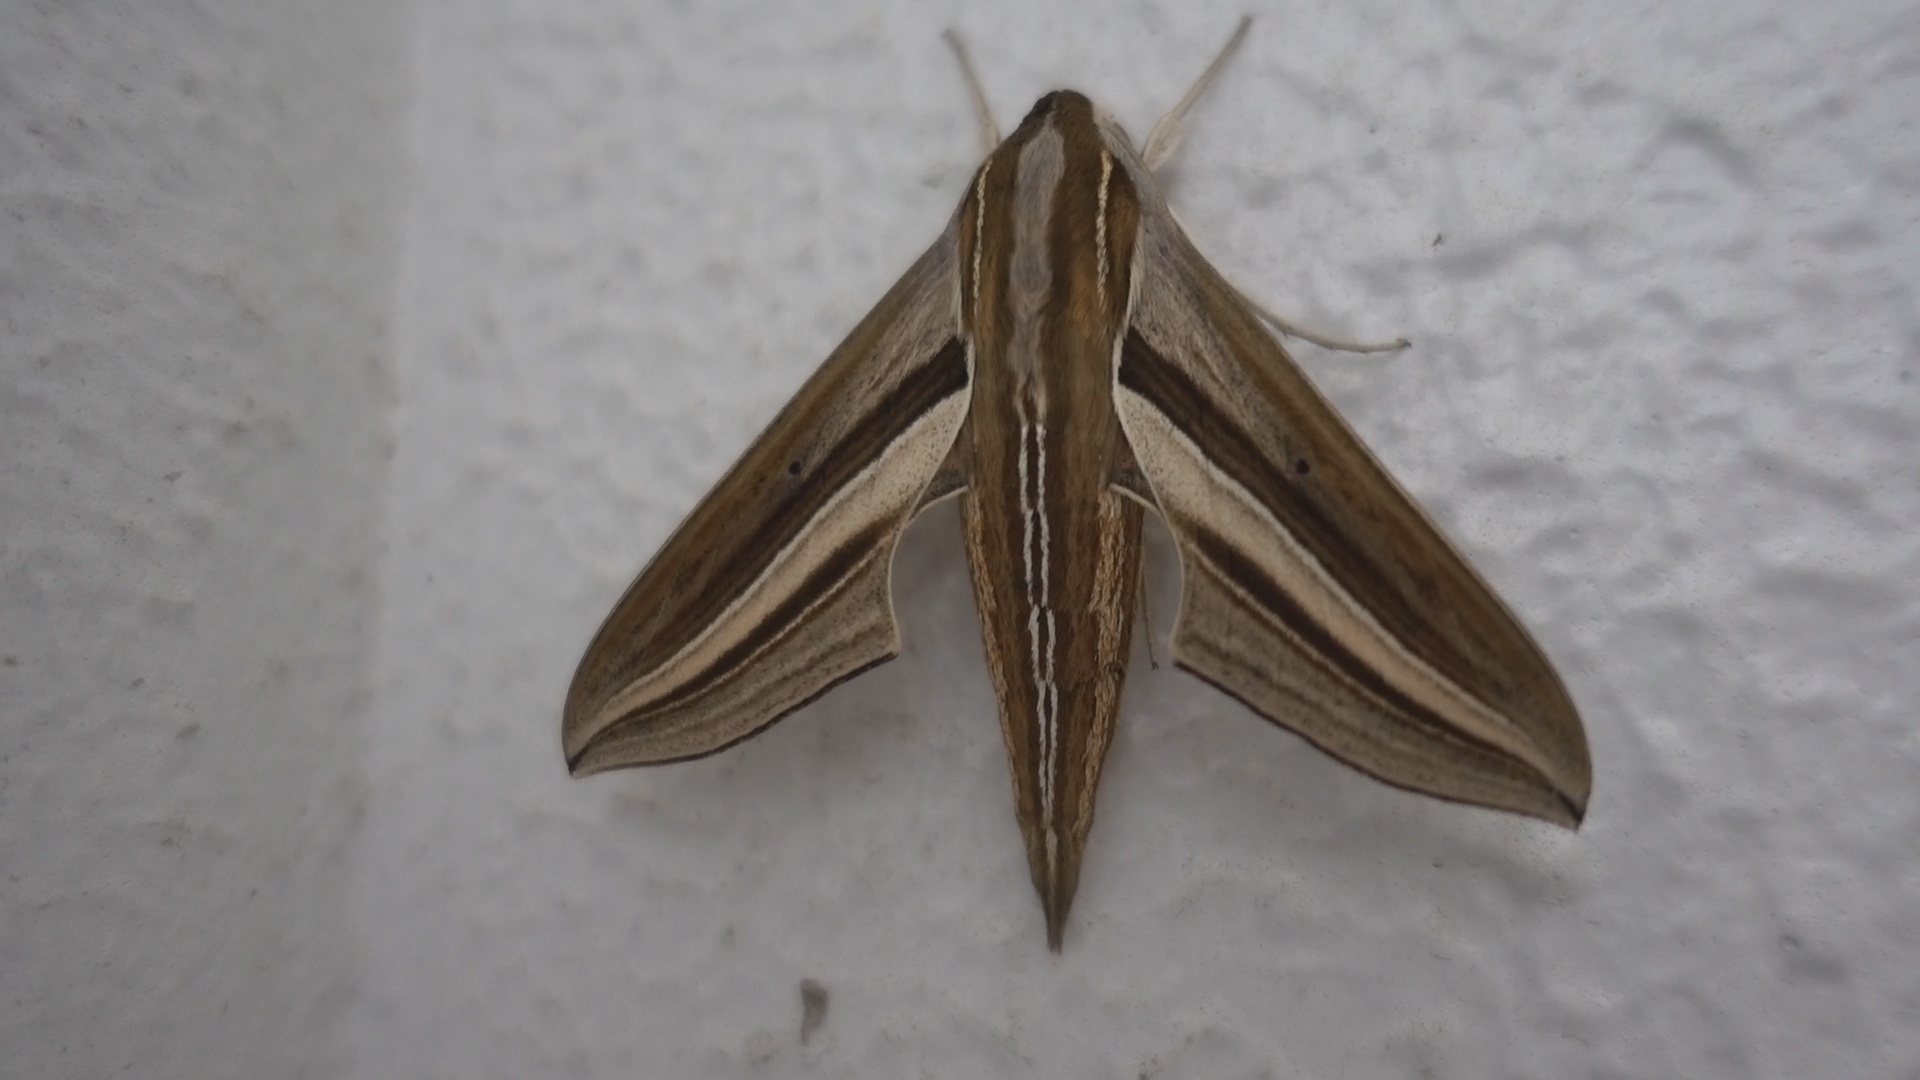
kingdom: Animalia
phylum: Arthropoda
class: Insecta
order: Lepidoptera
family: Sphingidae
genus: Theretra
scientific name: Theretra oldenlandiae
